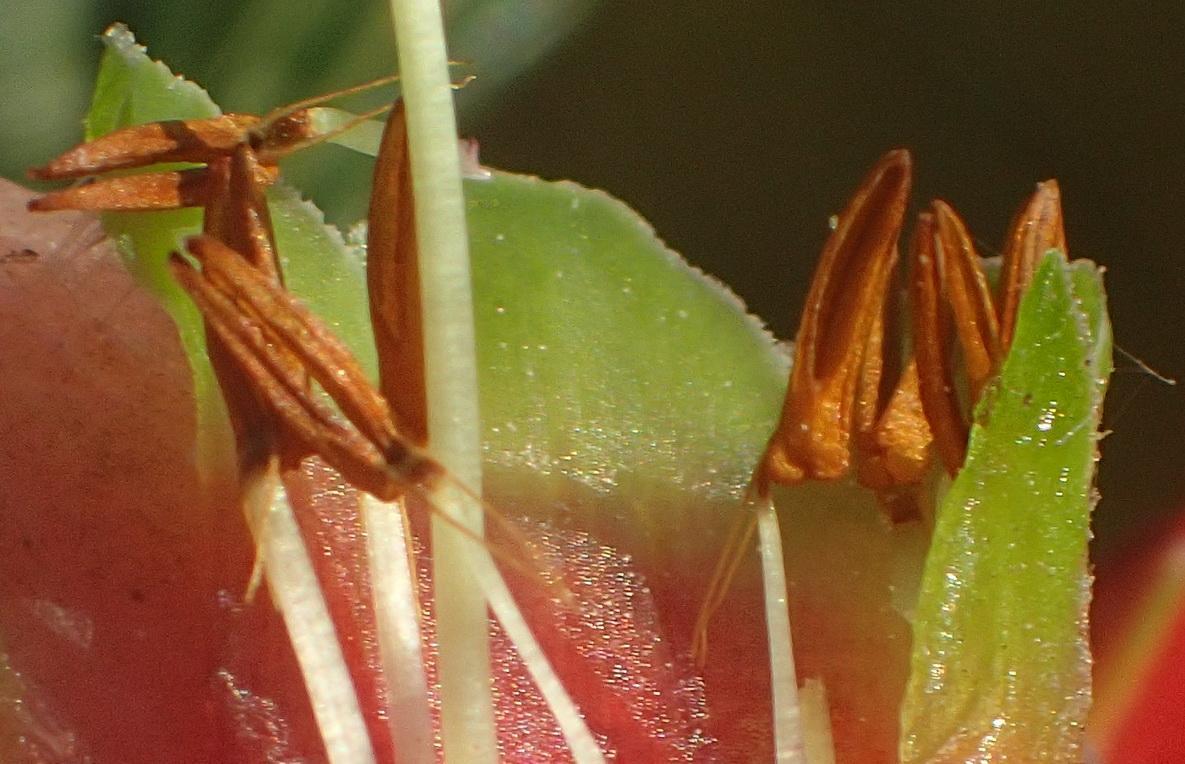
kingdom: Plantae
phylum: Tracheophyta
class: Magnoliopsida
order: Ericales
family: Ericaceae
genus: Erica
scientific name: Erica discolor
